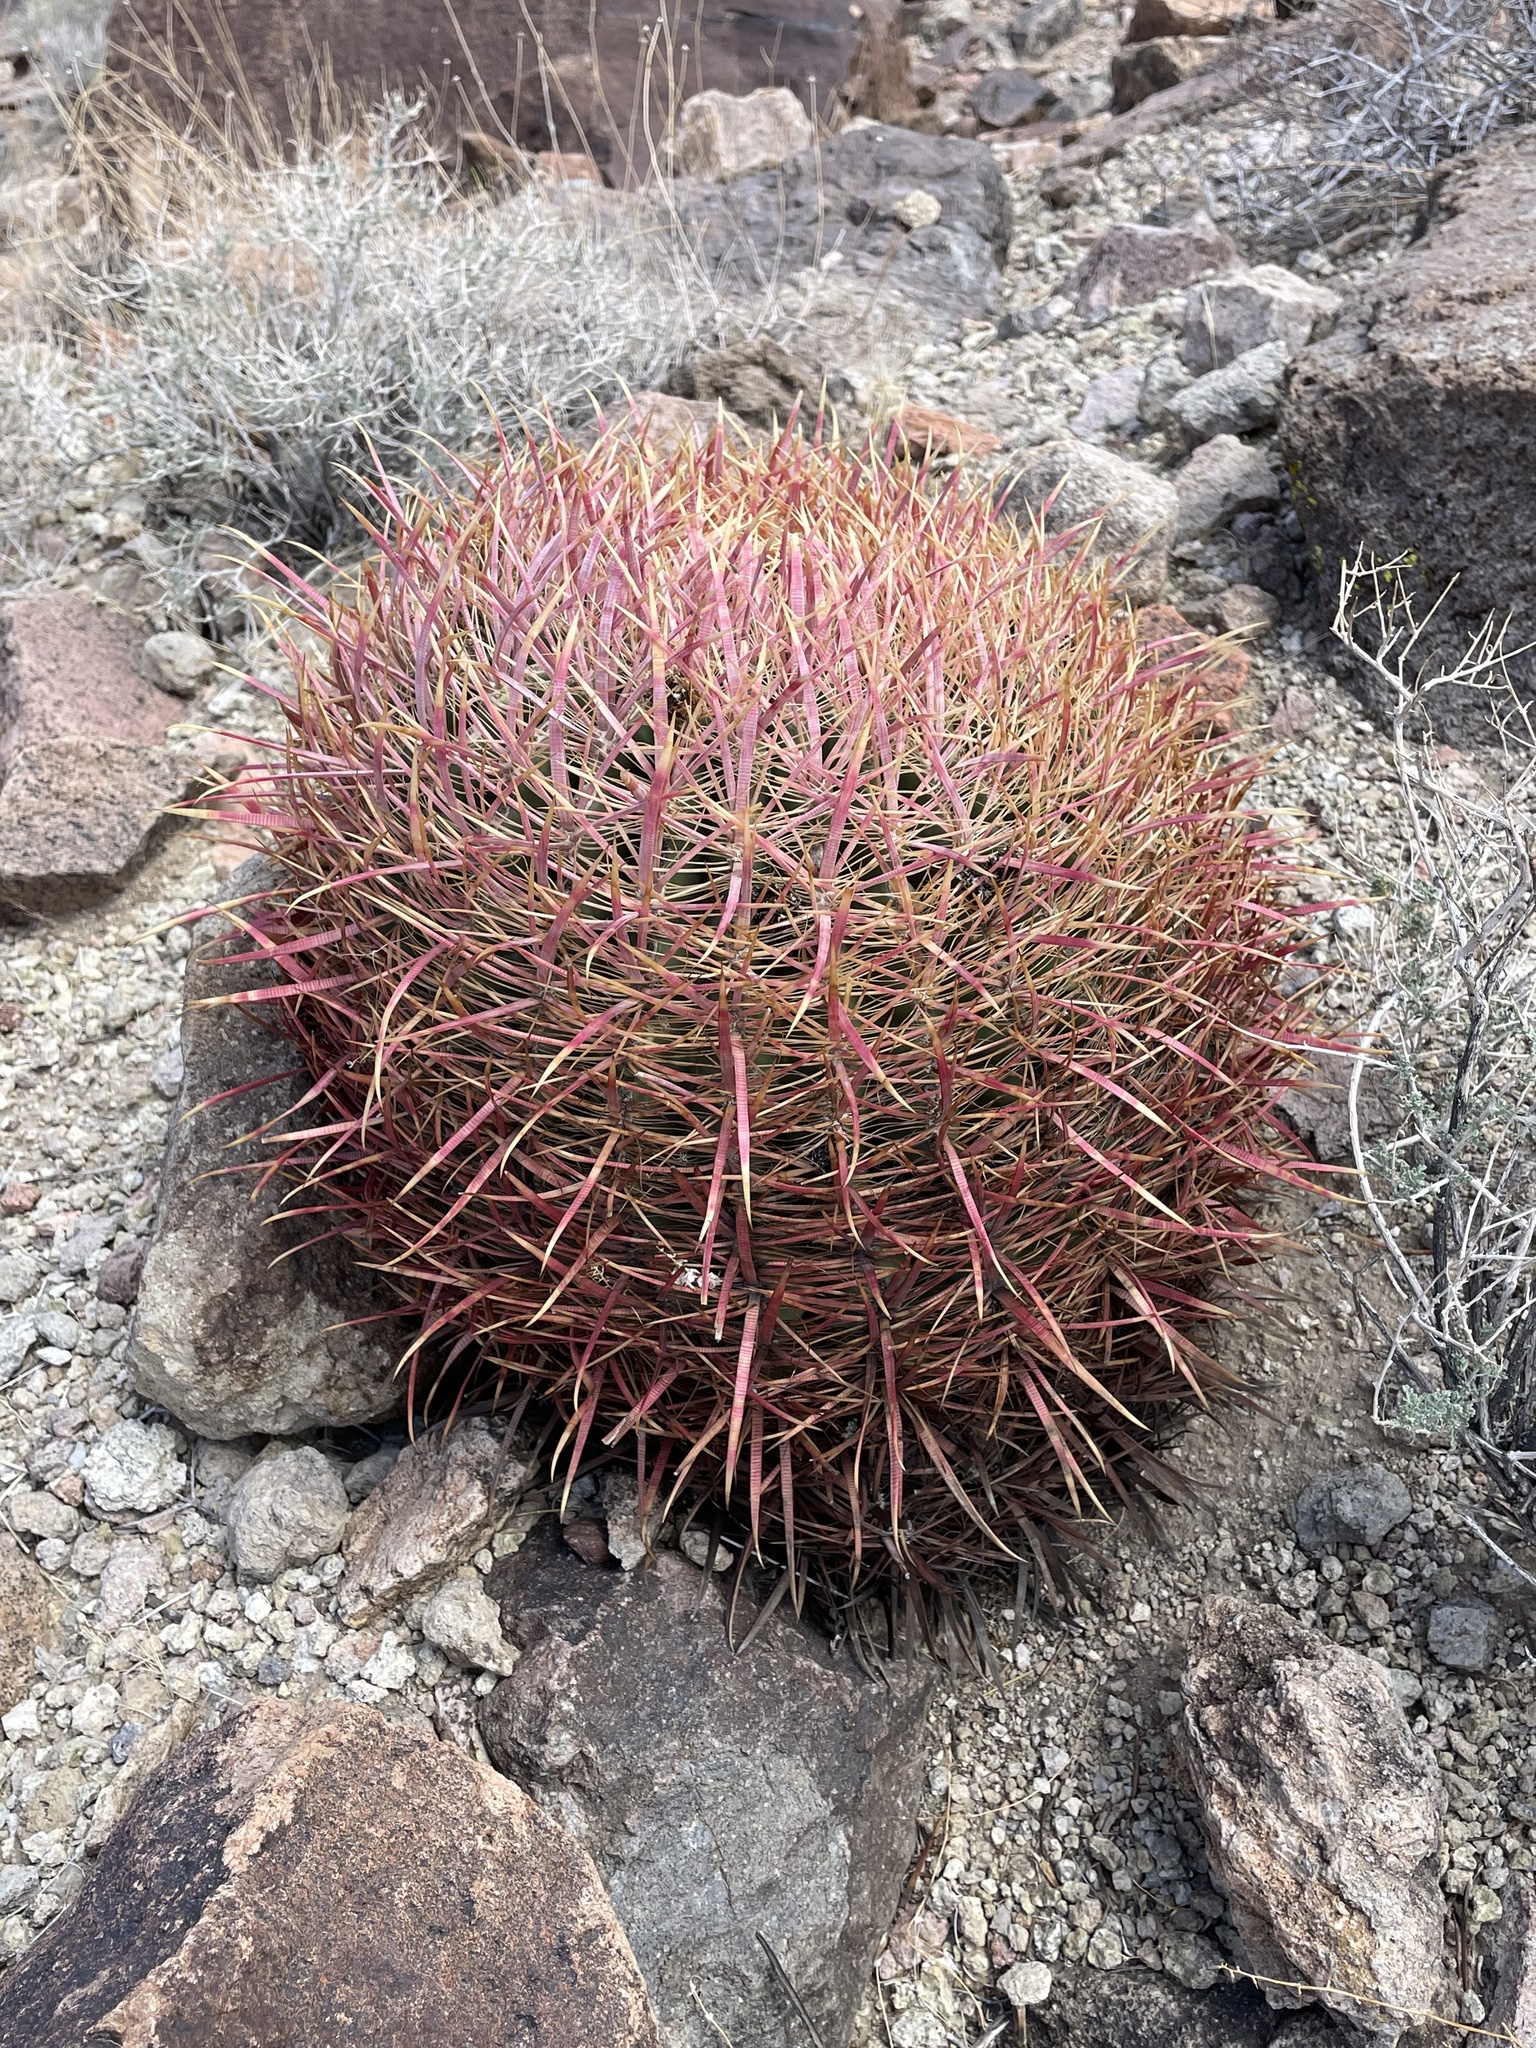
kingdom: Plantae
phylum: Tracheophyta
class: Magnoliopsida
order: Caryophyllales
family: Cactaceae
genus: Ferocactus
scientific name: Ferocactus cylindraceus
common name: California barrel cactus
